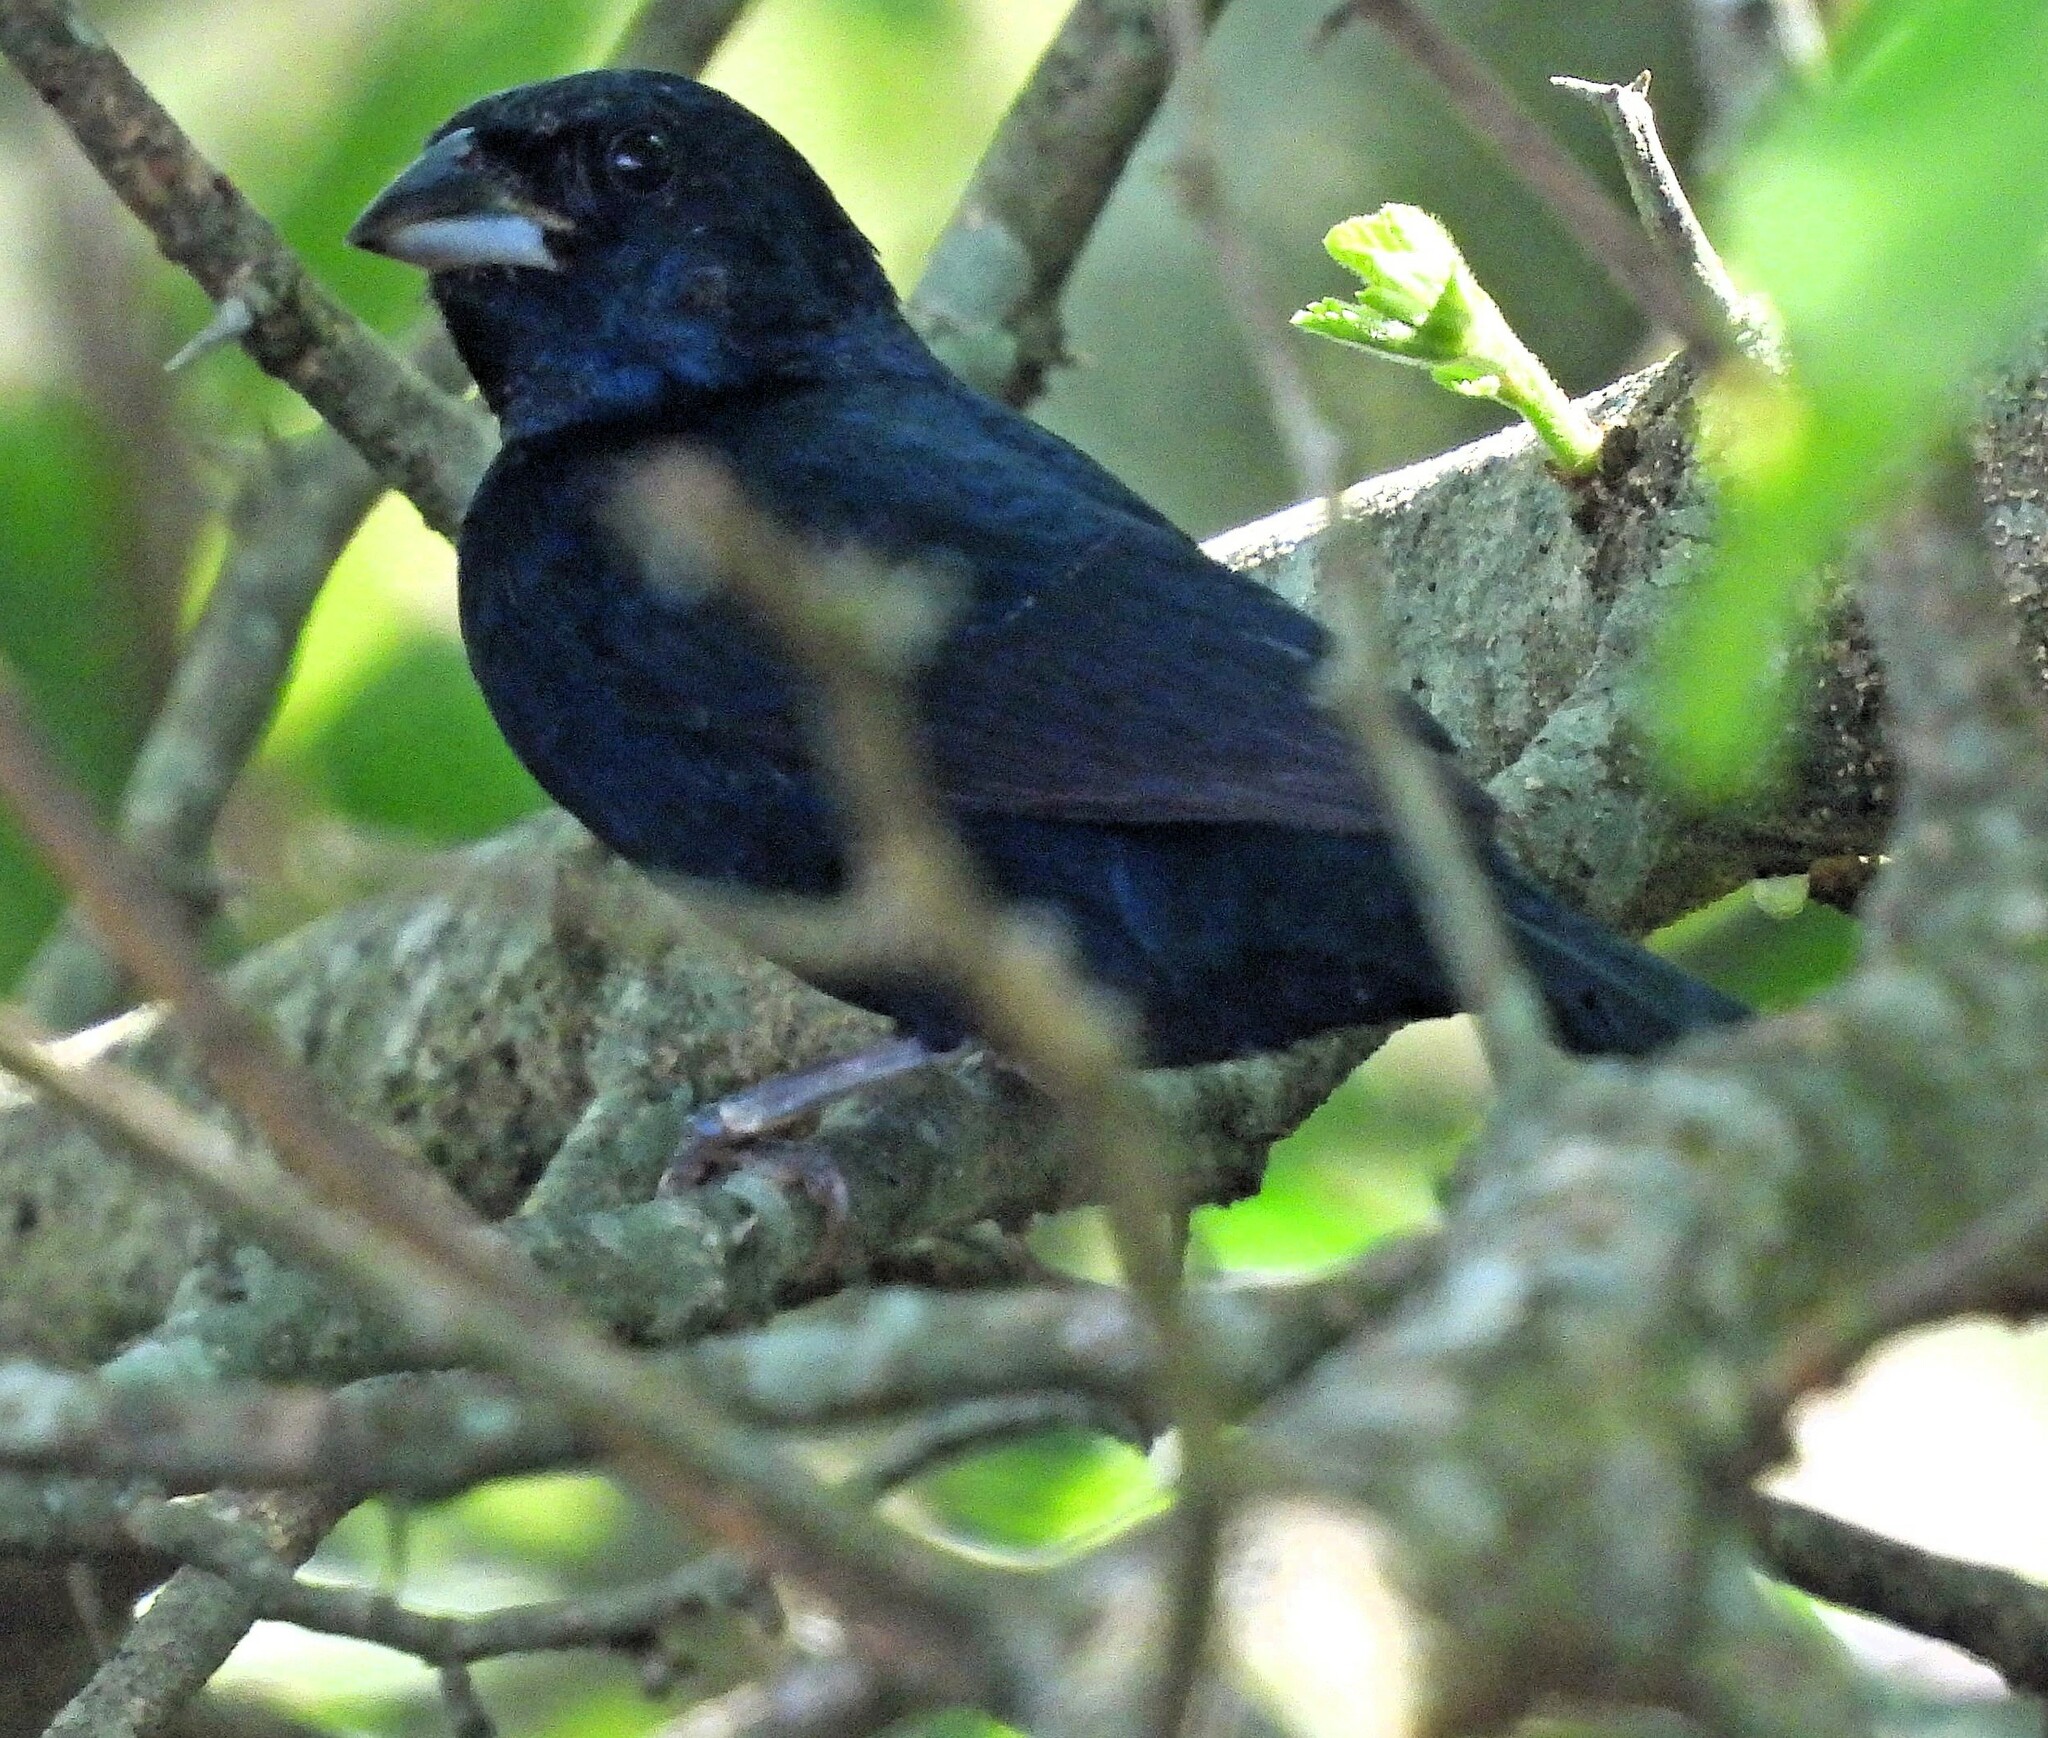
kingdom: Animalia
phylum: Chordata
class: Aves
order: Passeriformes
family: Thraupidae
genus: Volatinia
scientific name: Volatinia jacarina
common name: Blue-black grassquit
